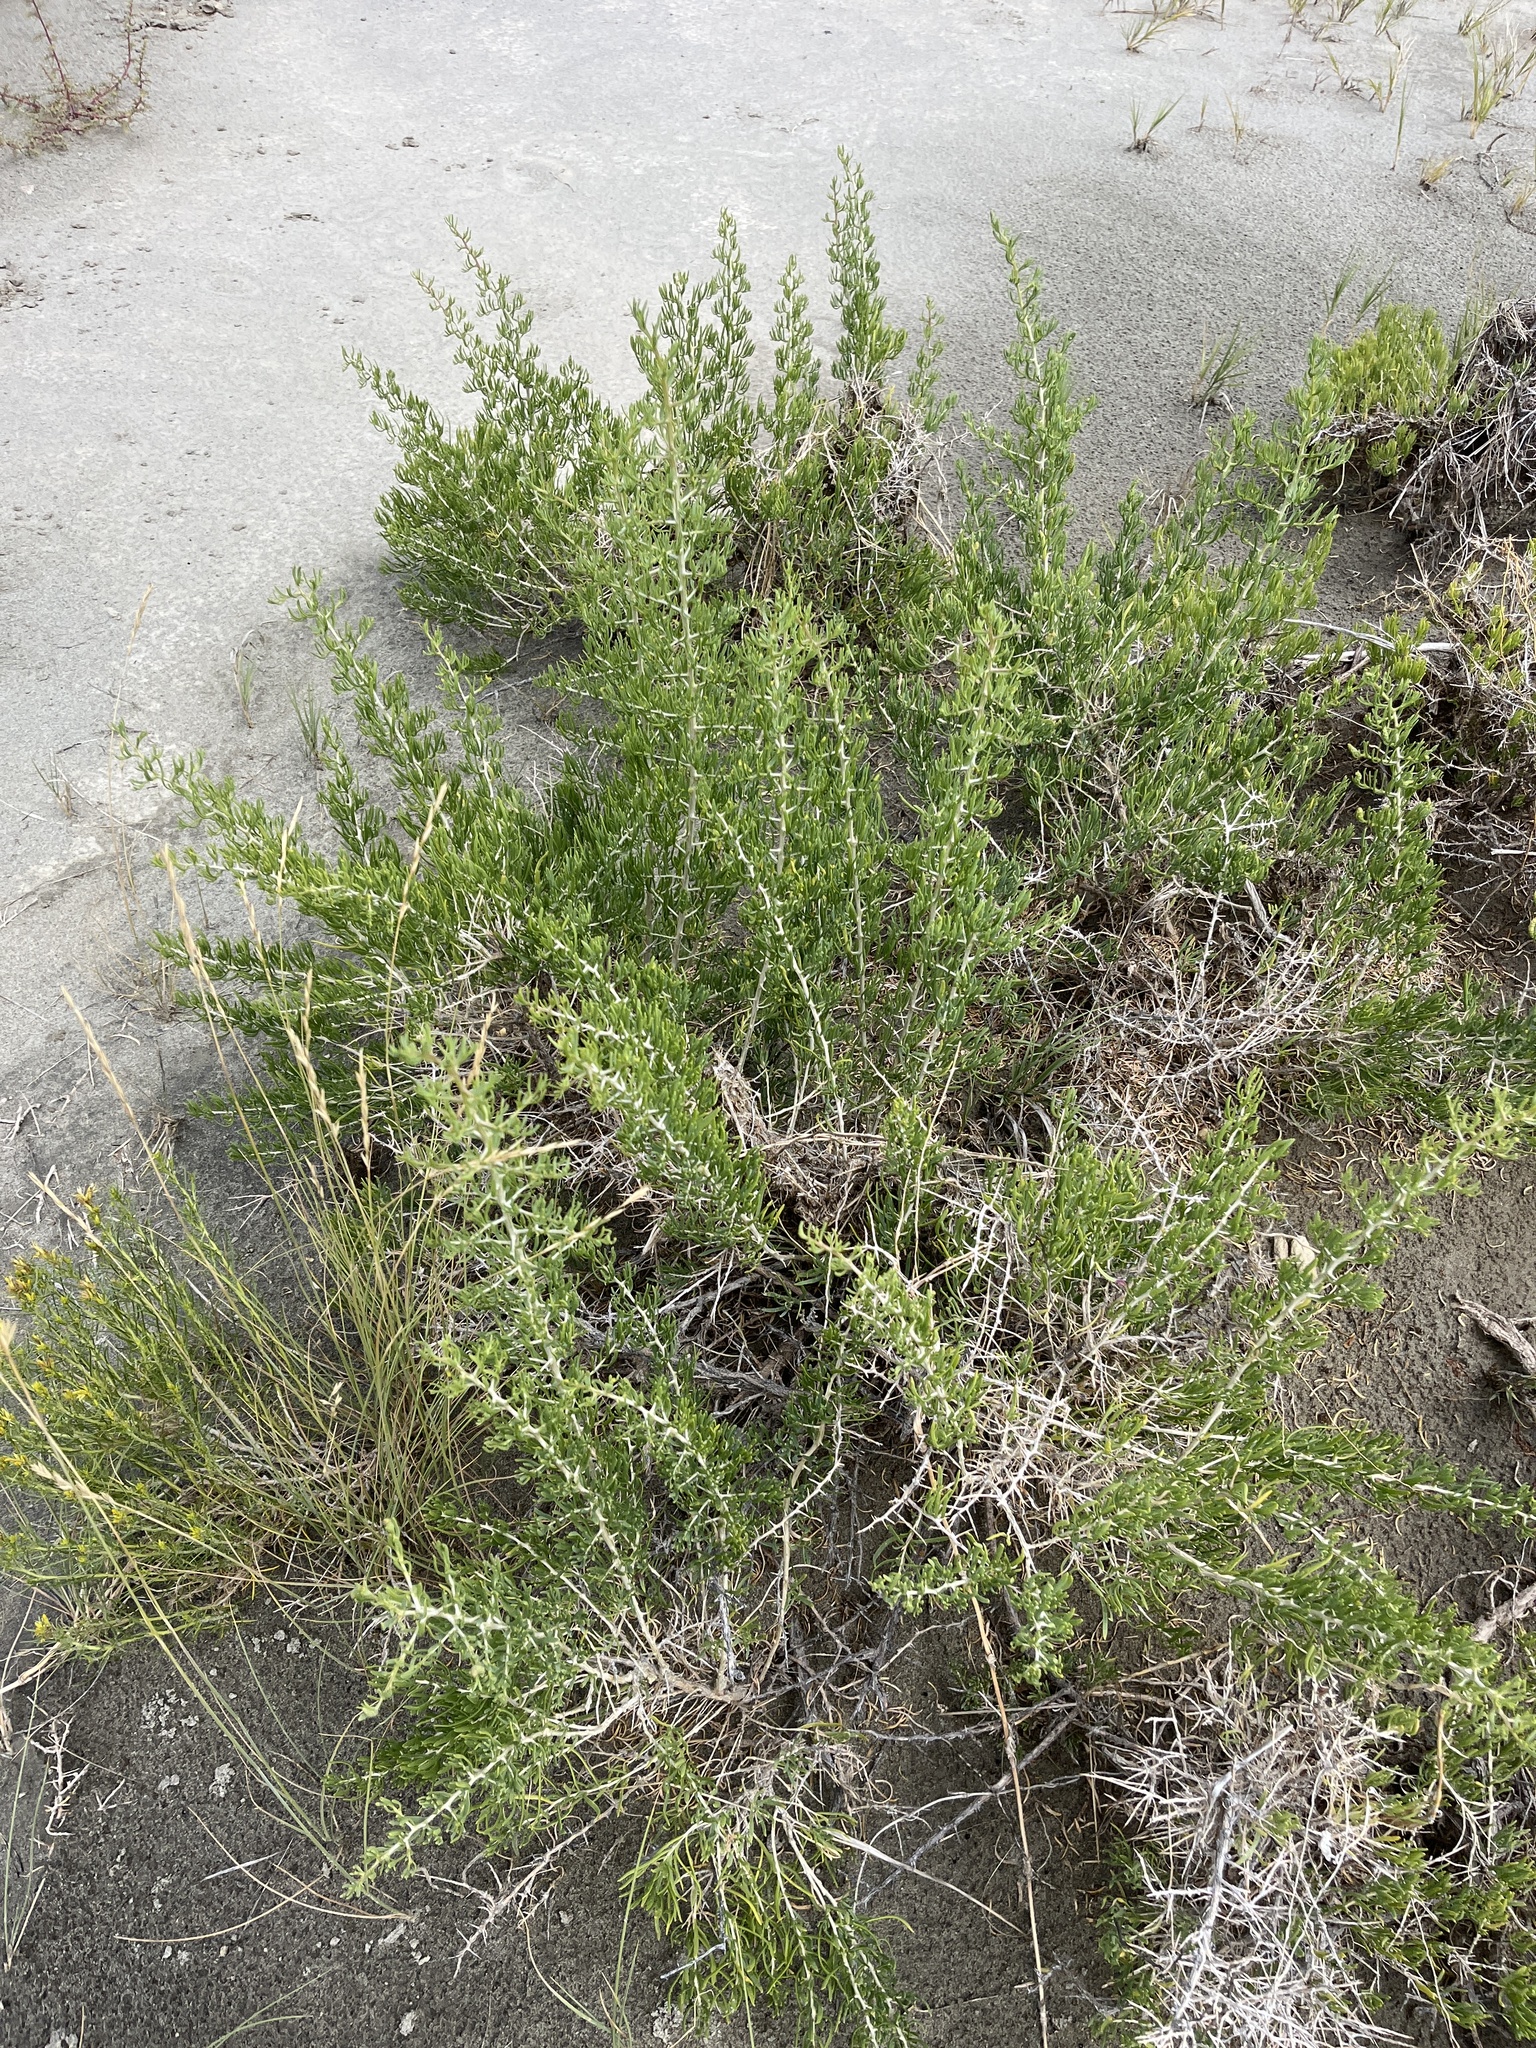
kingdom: Plantae
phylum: Tracheophyta
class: Magnoliopsida
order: Caryophyllales
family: Sarcobataceae
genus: Sarcobatus
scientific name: Sarcobatus vermiculatus
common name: Greasewood
